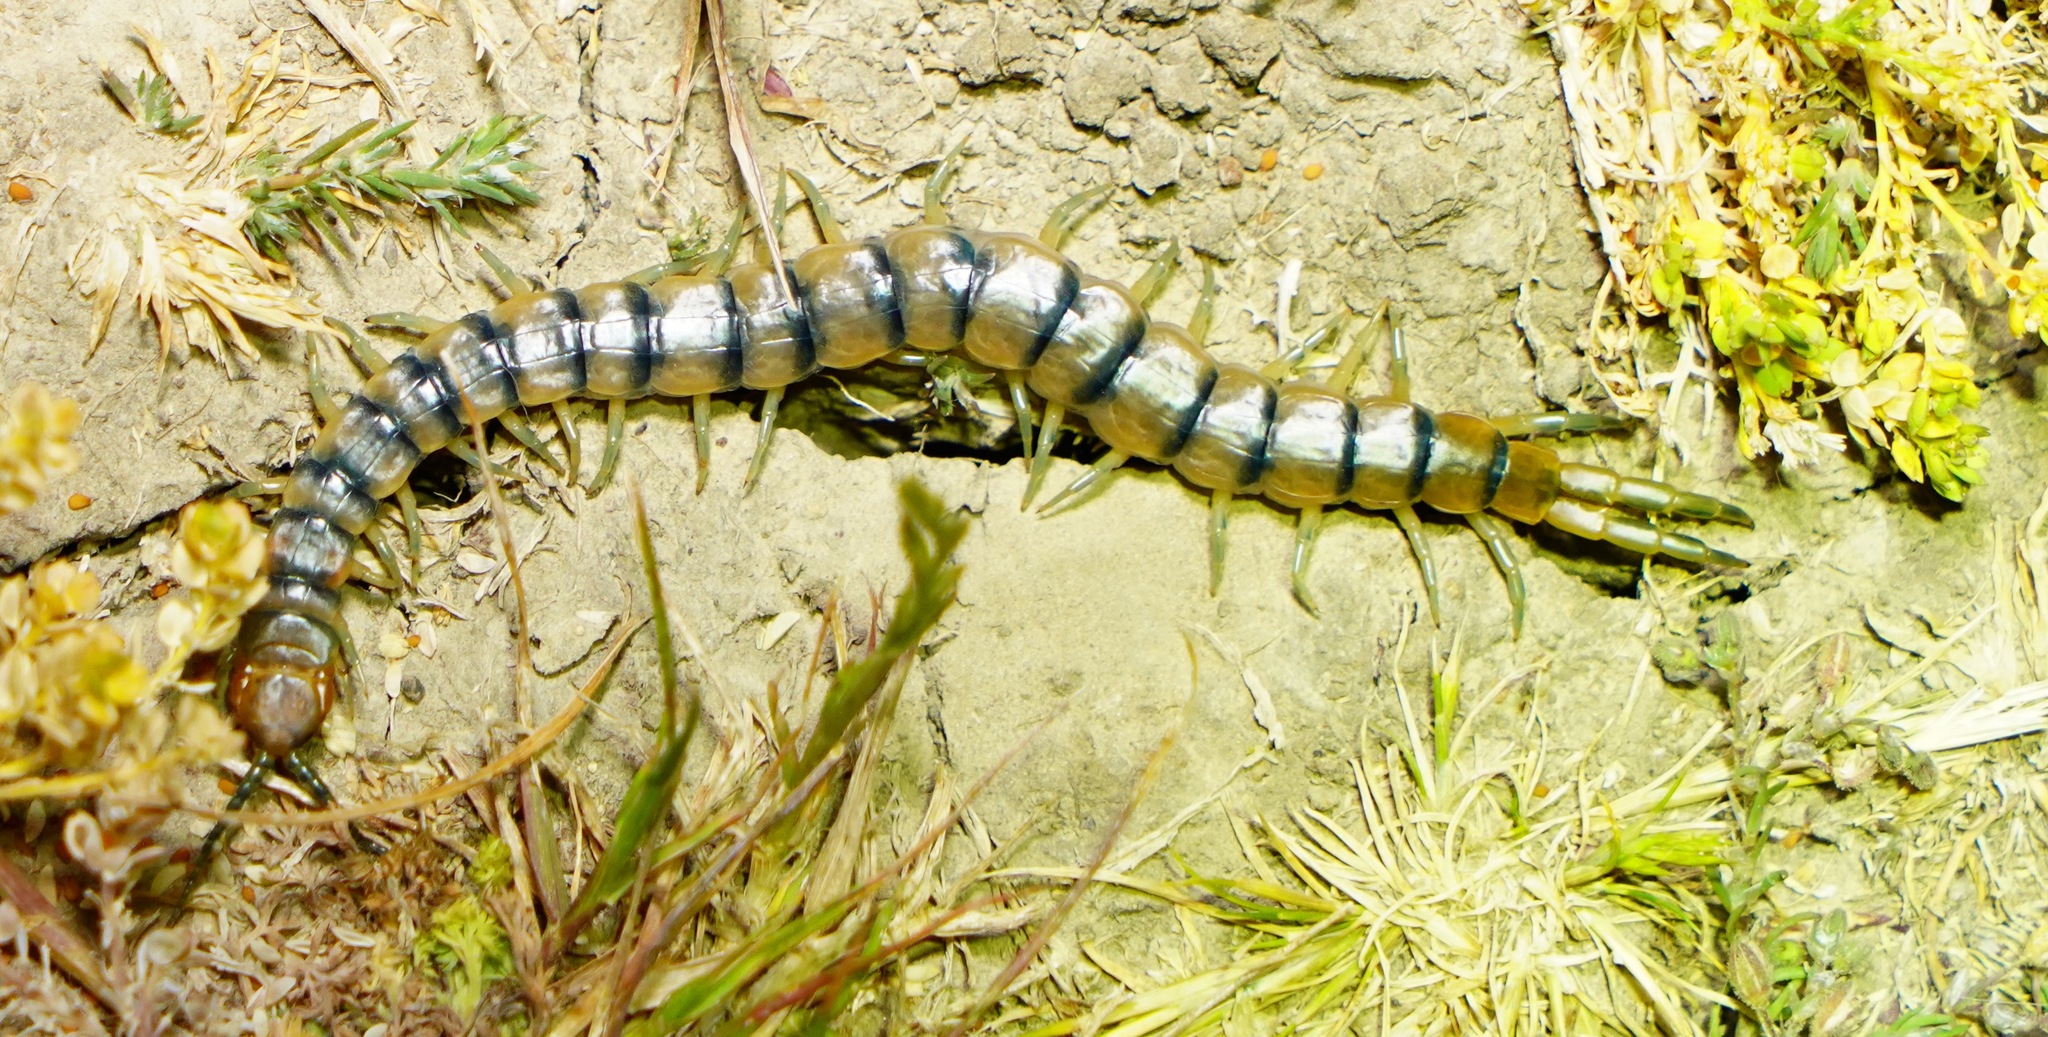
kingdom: Animalia
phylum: Arthropoda
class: Chilopoda
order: Scolopendromorpha
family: Scolopendridae
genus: Scolopendra
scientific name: Scolopendra polymorpha
